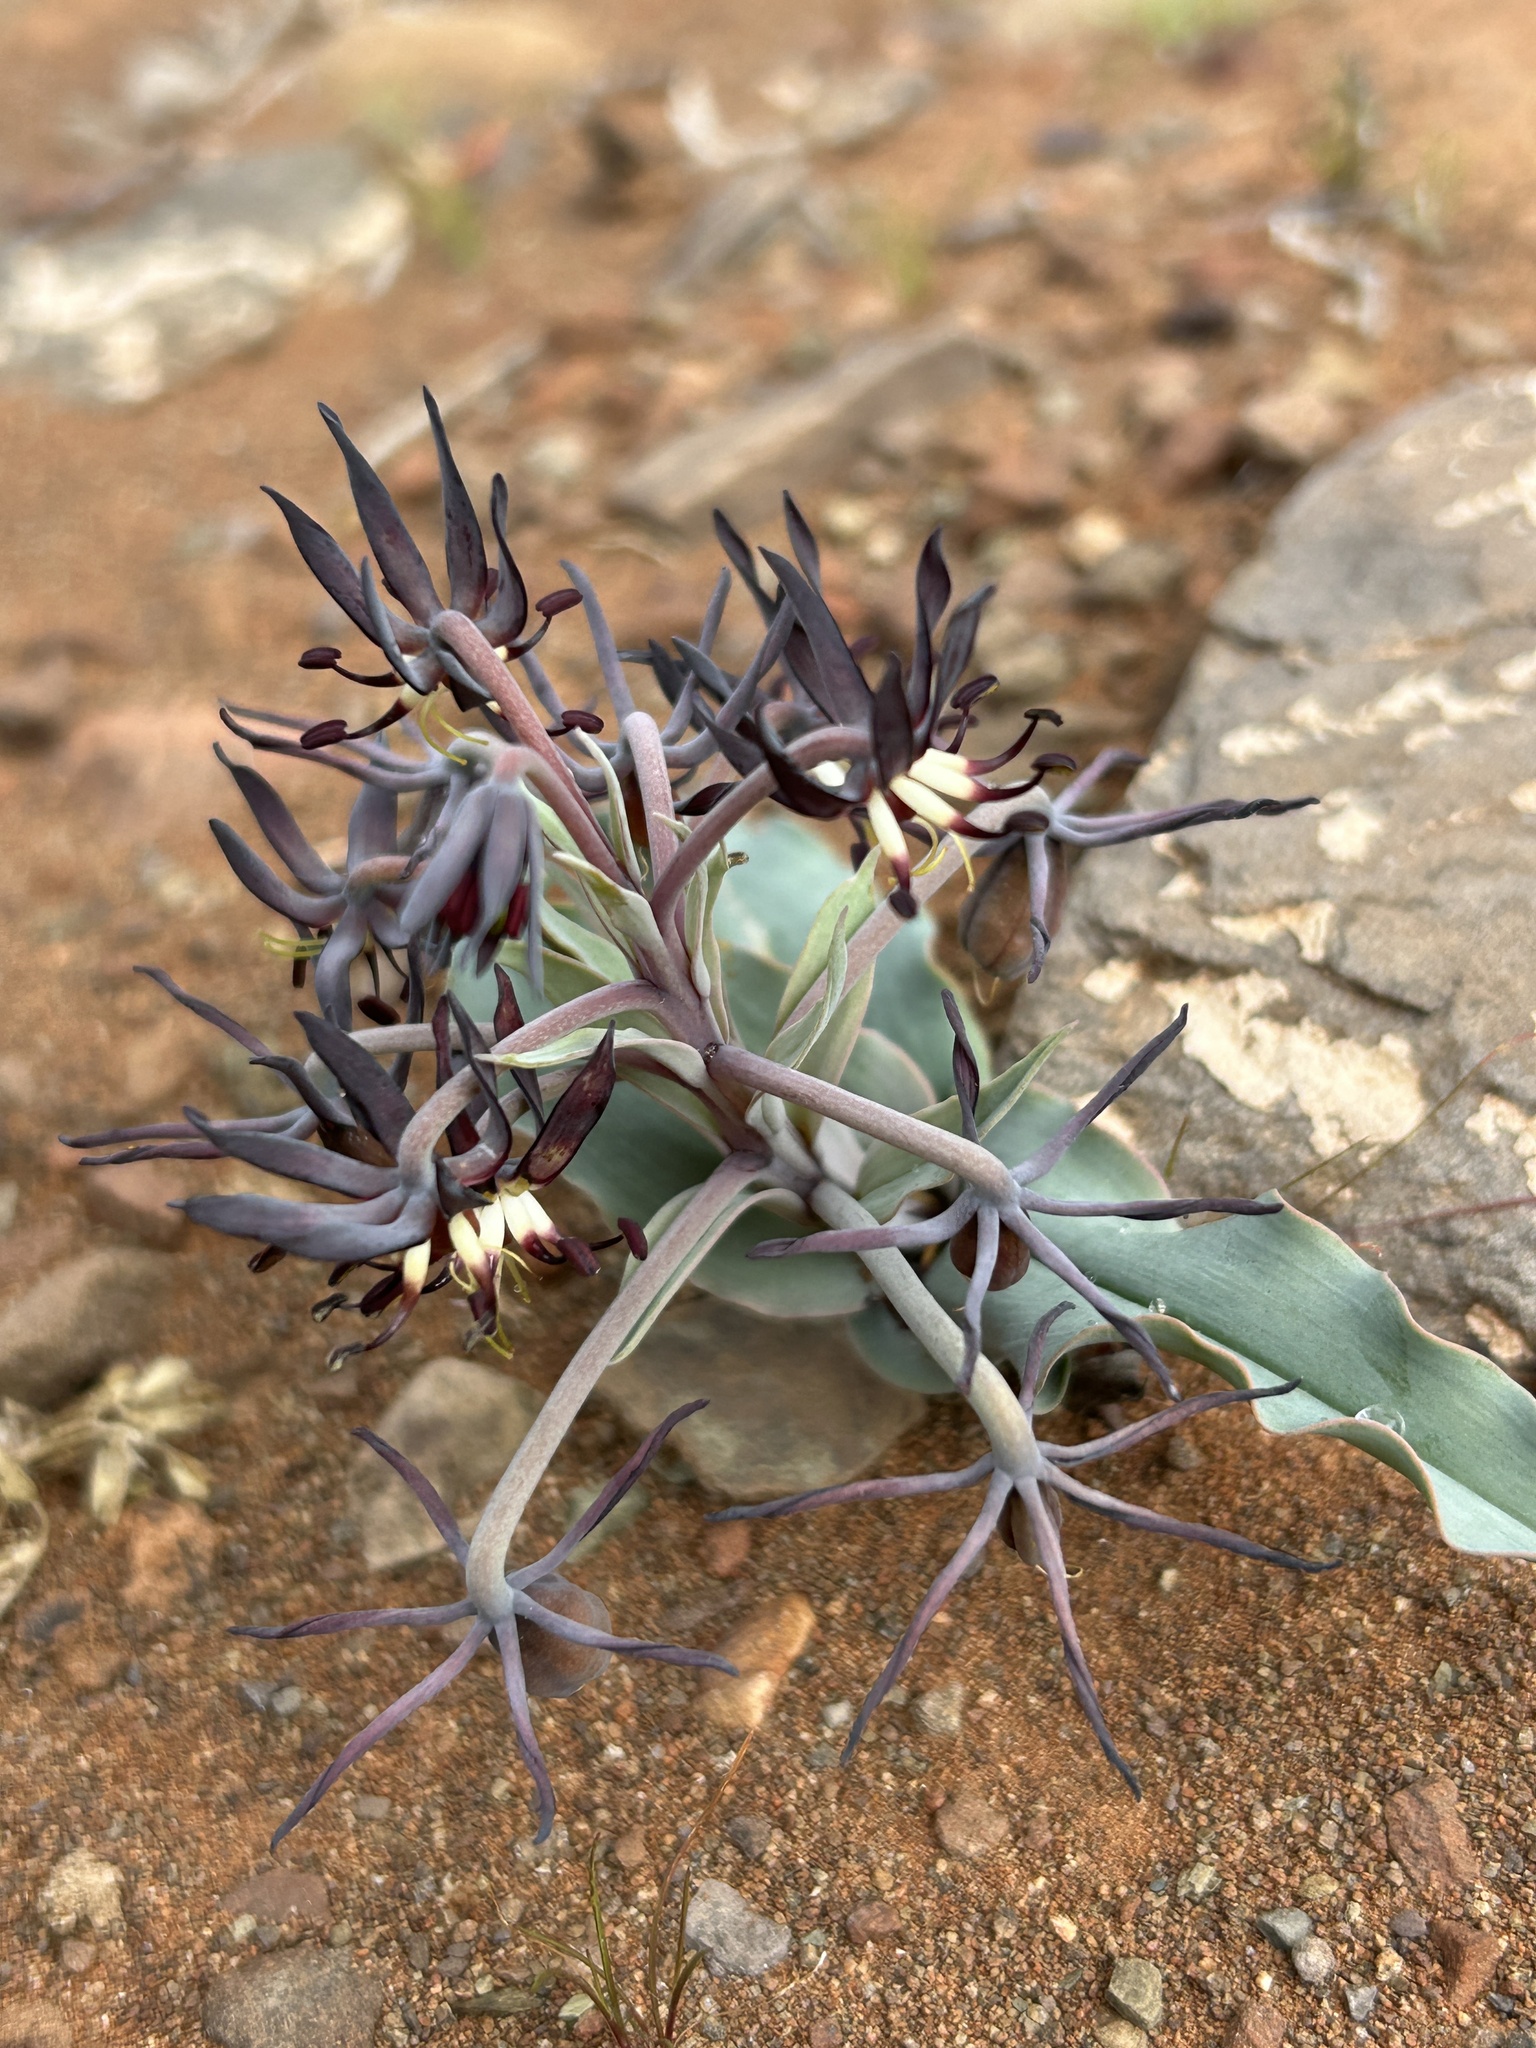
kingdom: Plantae
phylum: Tracheophyta
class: Liliopsida
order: Liliales
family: Colchicaceae
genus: Ornithoglossum
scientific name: Ornithoglossum vulgare
